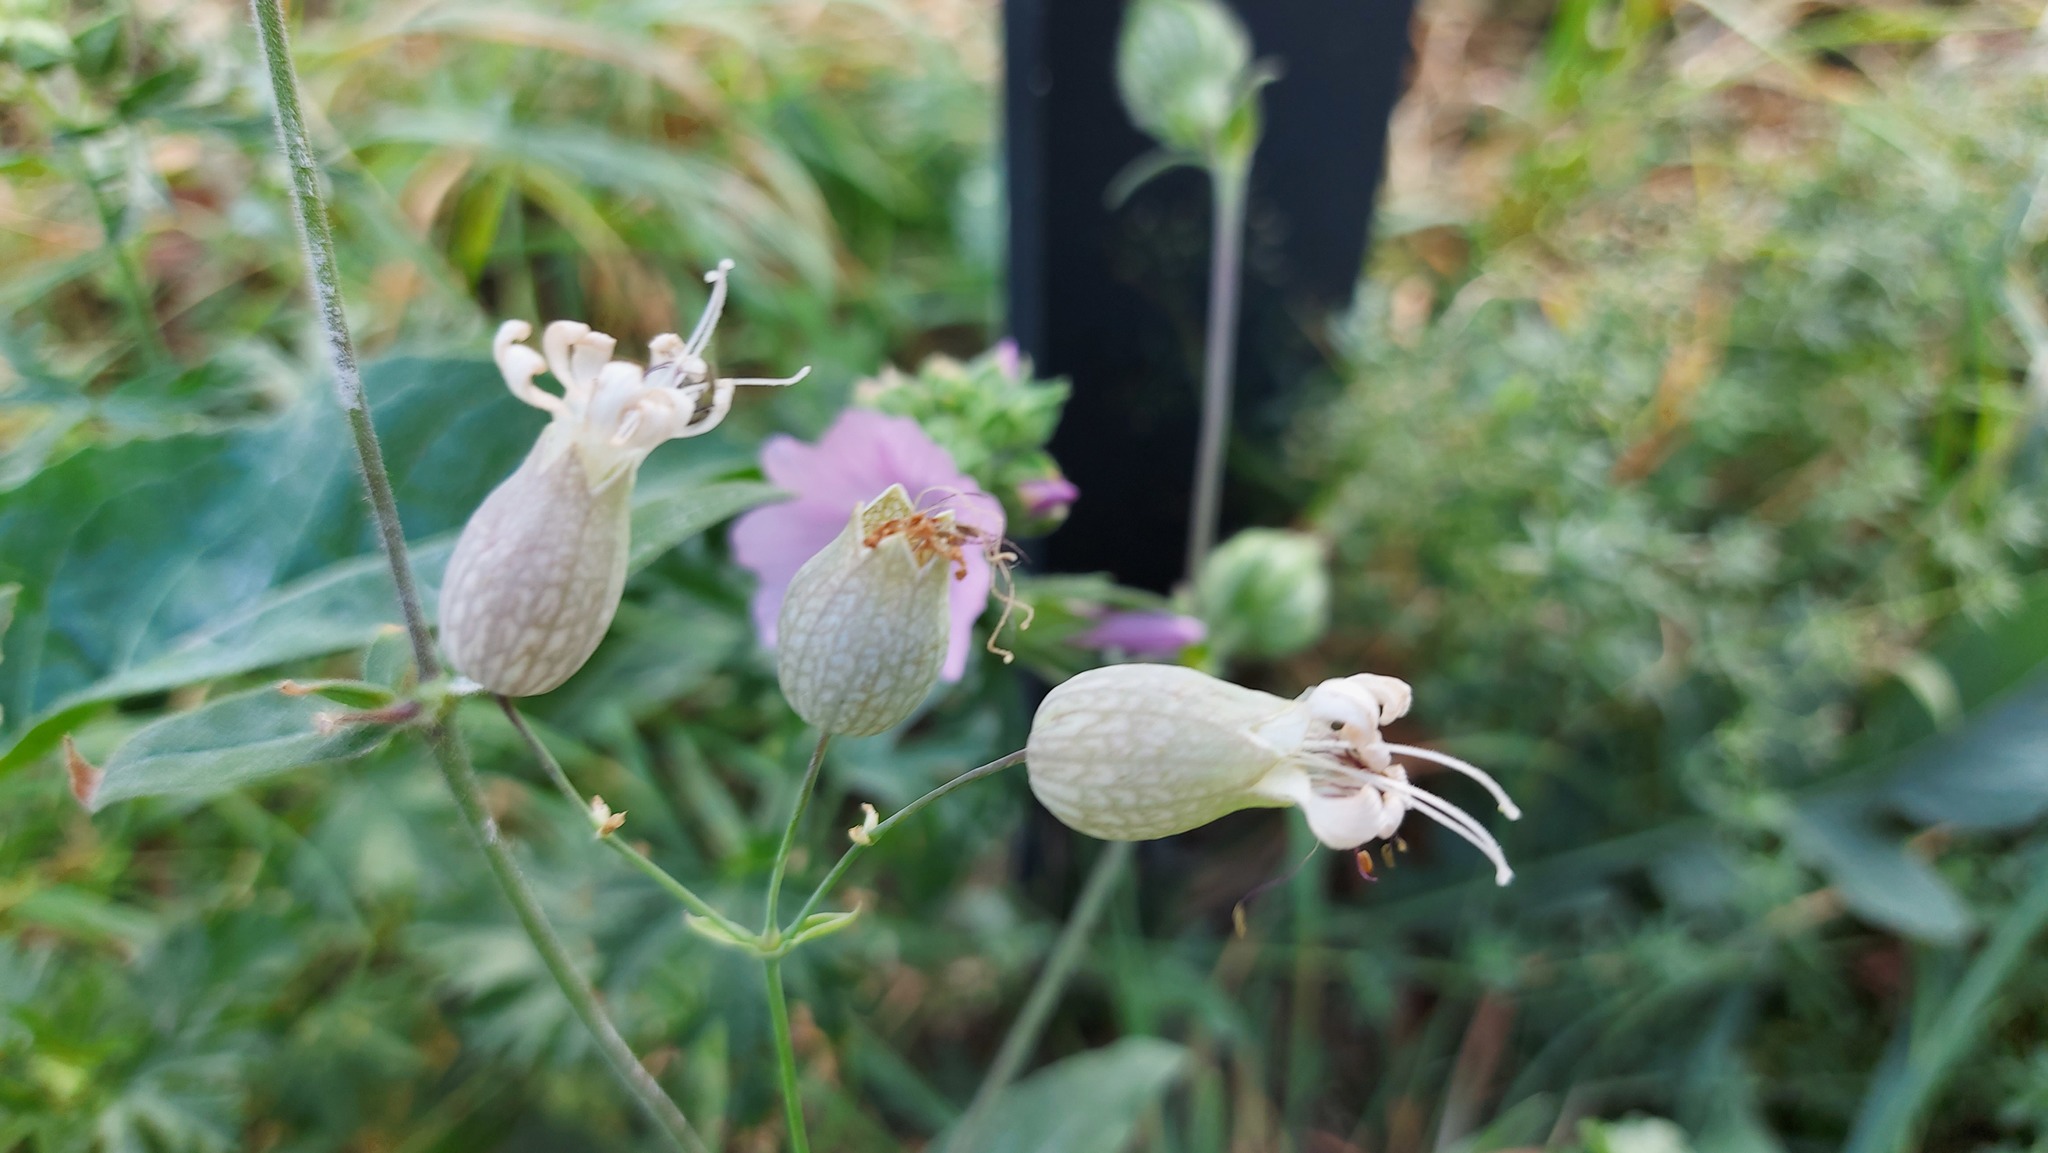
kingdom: Plantae
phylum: Tracheophyta
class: Magnoliopsida
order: Caryophyllales
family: Caryophyllaceae
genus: Silene
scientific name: Silene vulgaris
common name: Bladder campion
